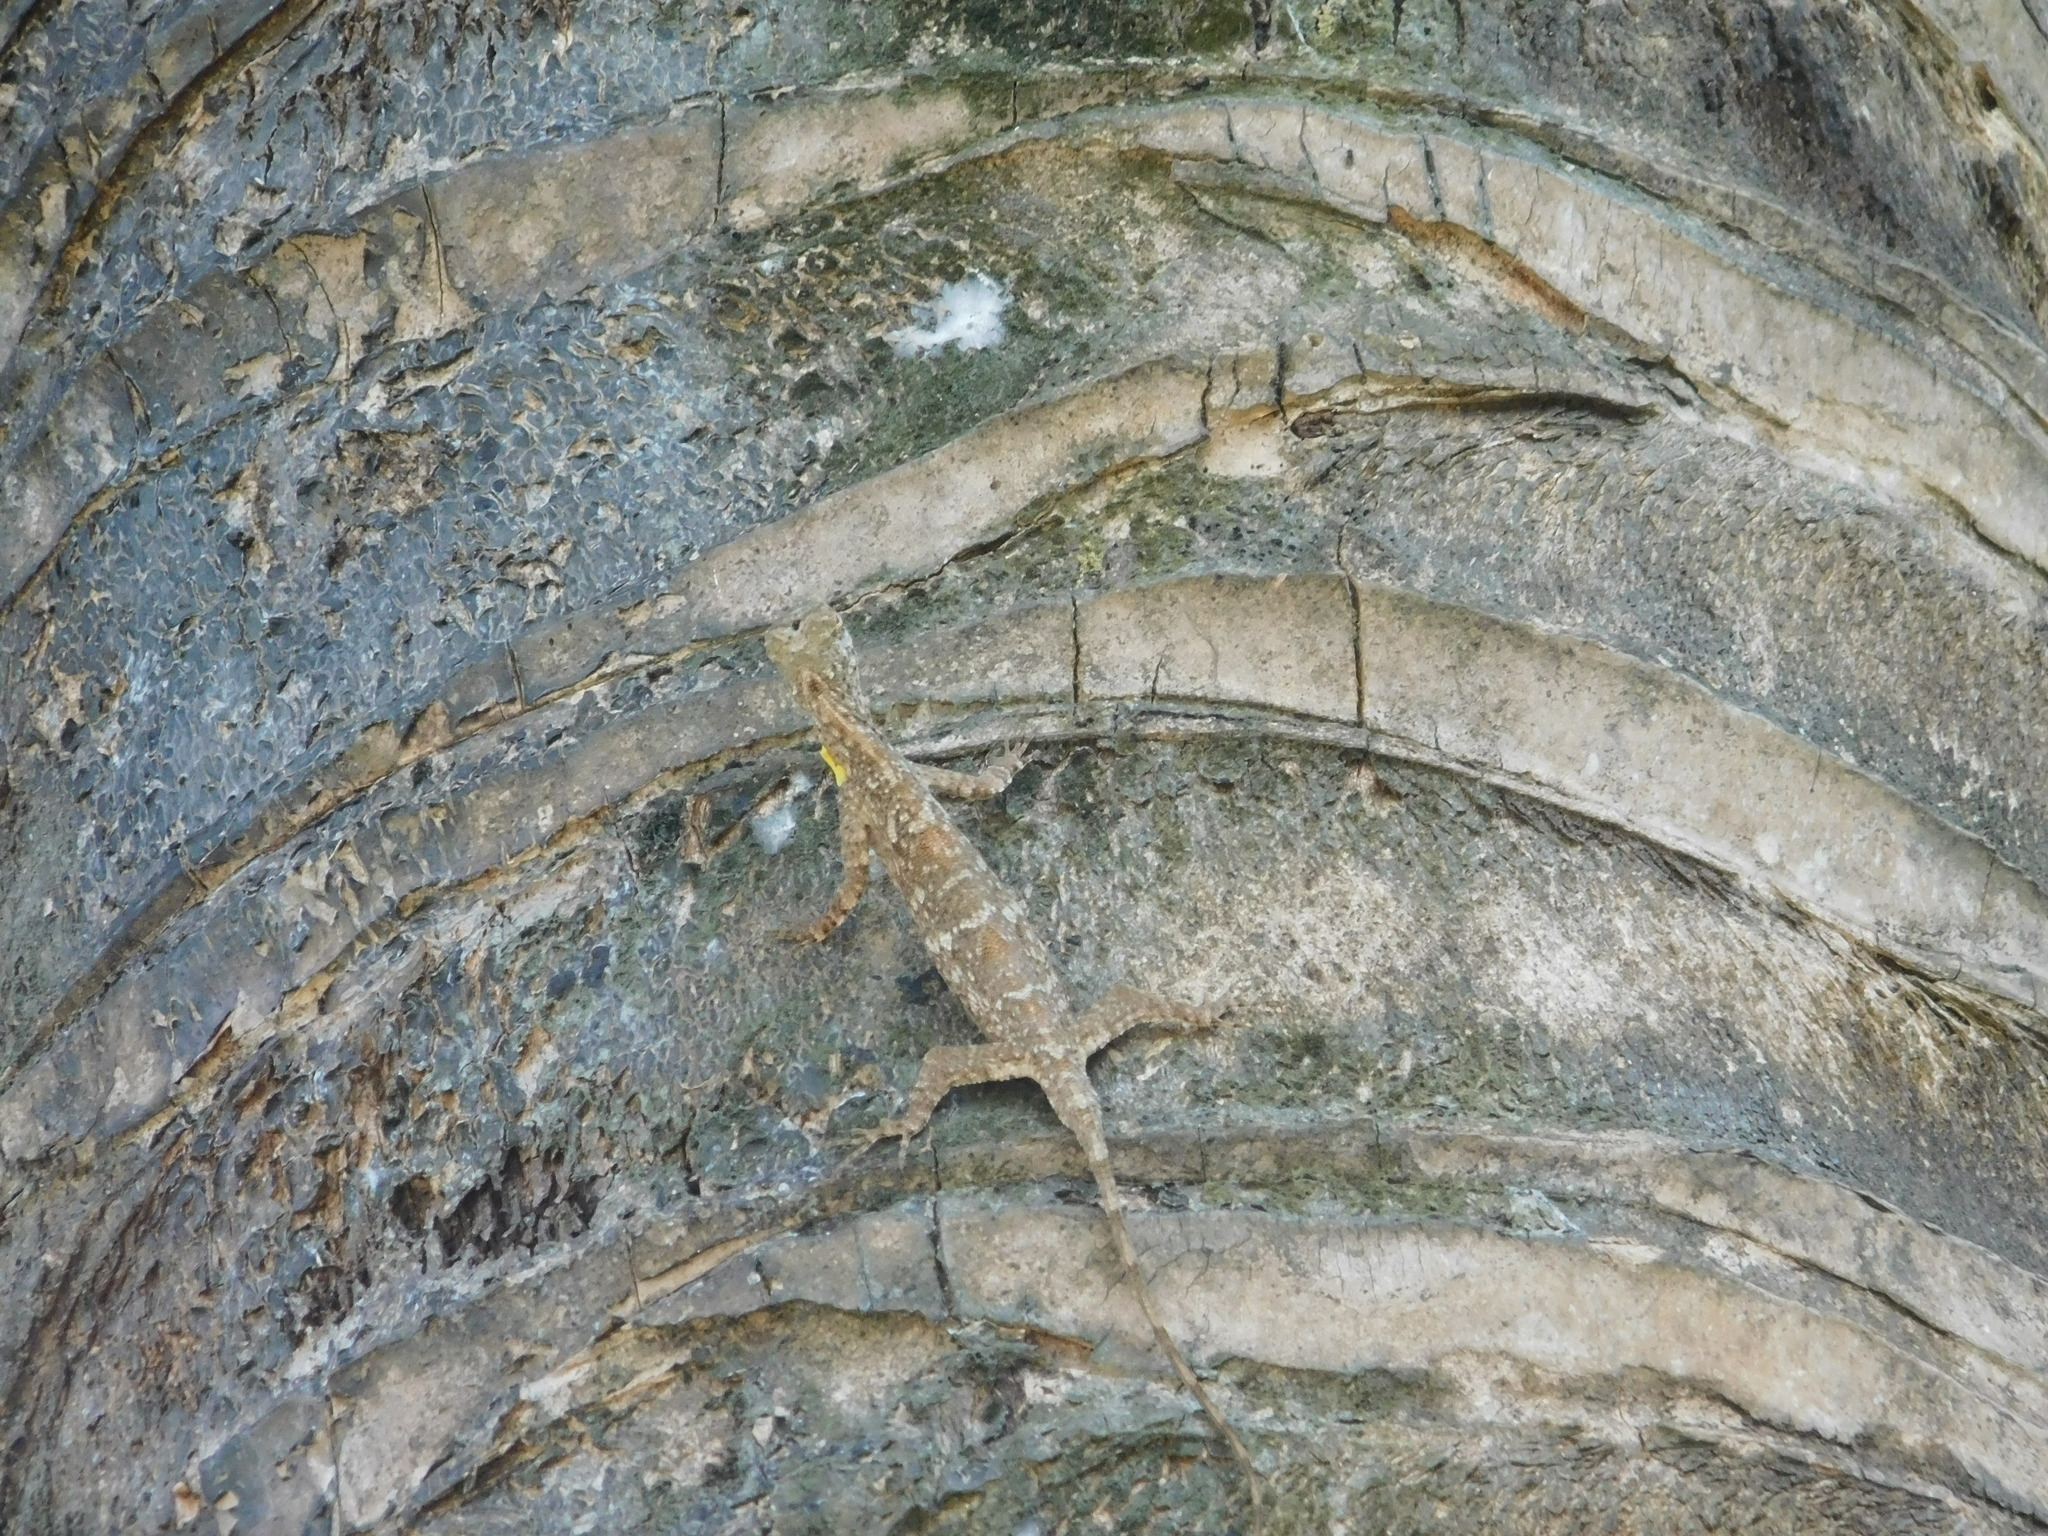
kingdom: Animalia
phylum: Chordata
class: Squamata
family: Agamidae
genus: Draco
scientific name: Draco volans
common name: Common flying dragon
